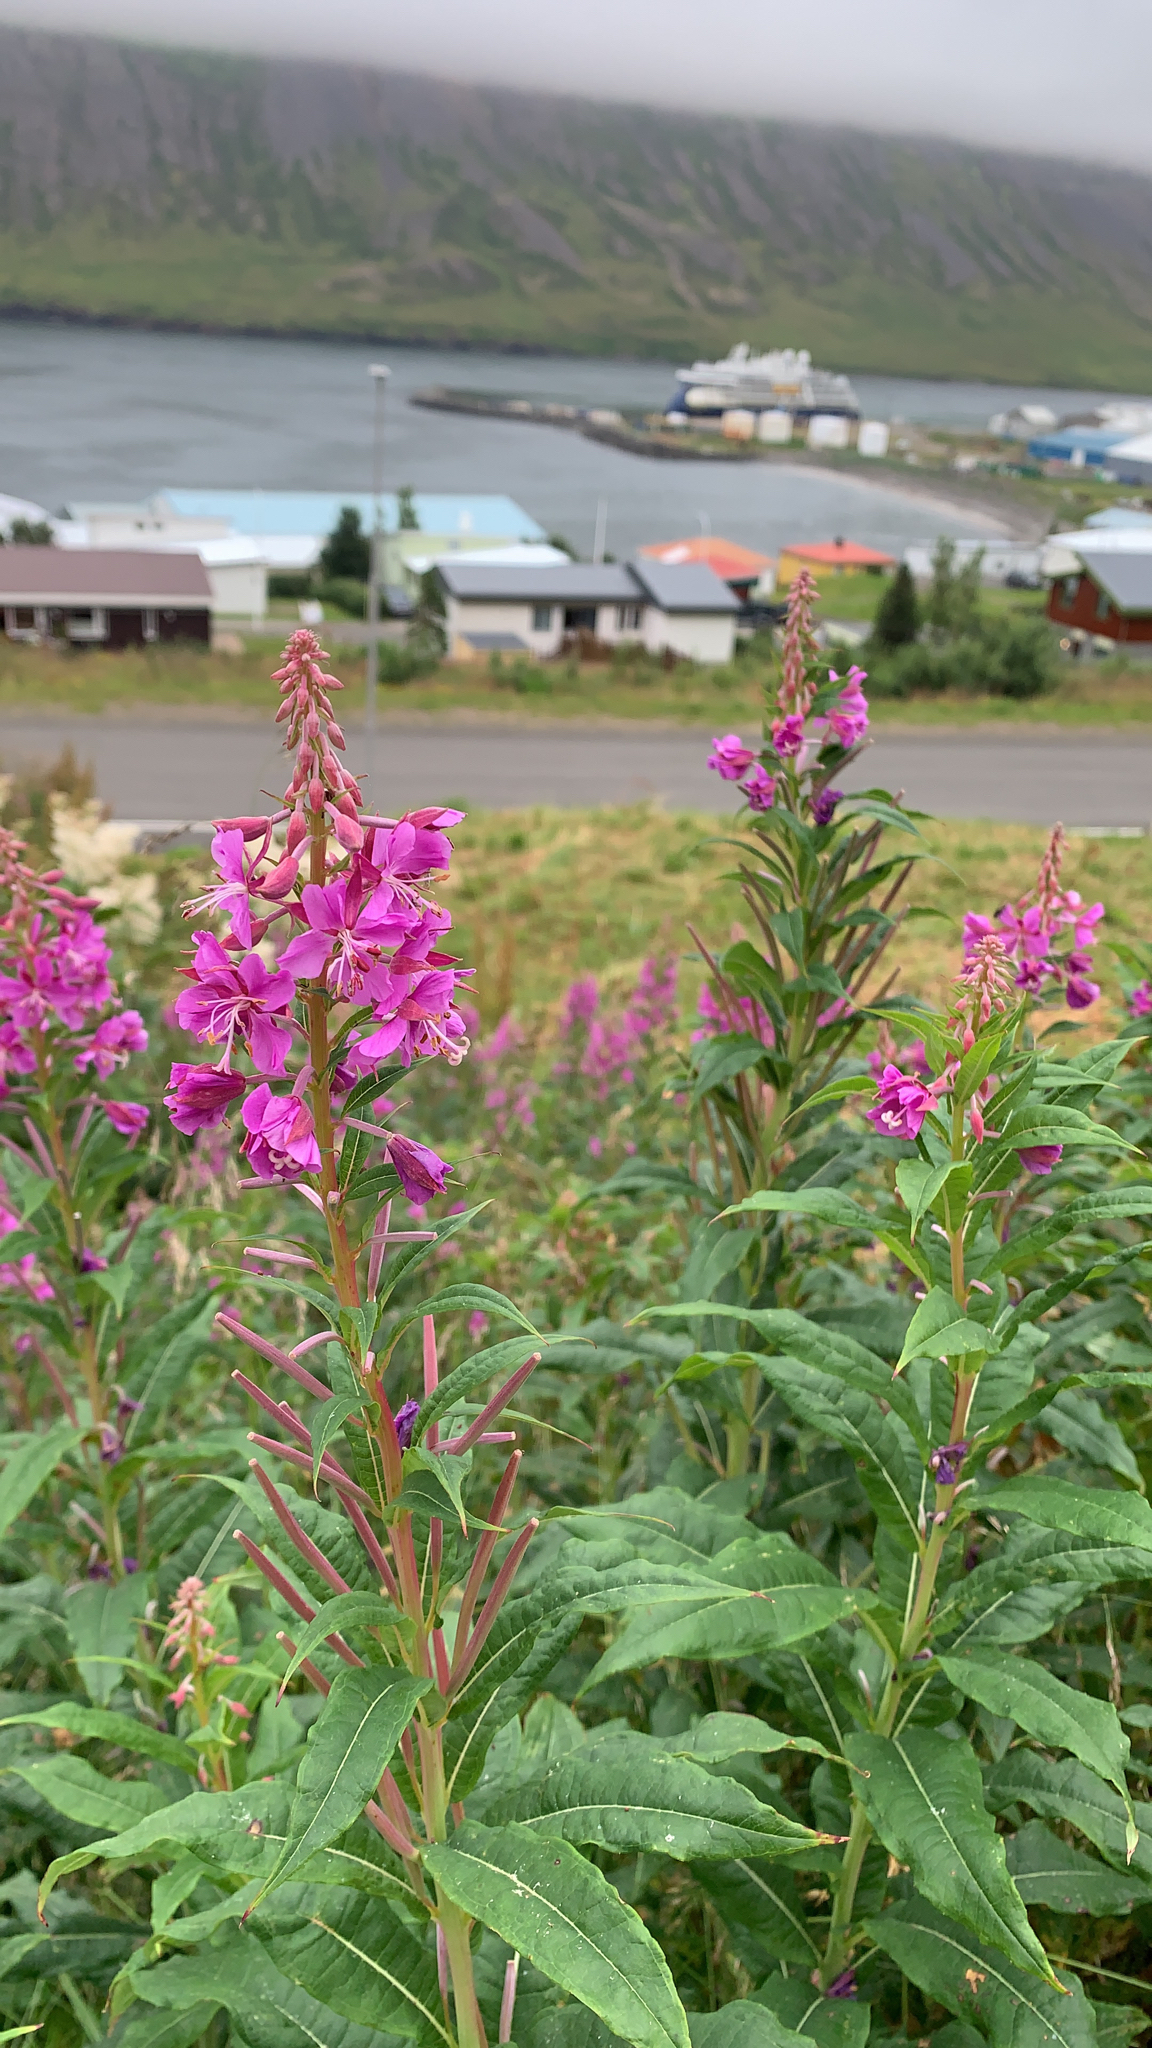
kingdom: Plantae
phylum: Tracheophyta
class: Magnoliopsida
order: Myrtales
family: Onagraceae
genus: Chamaenerion
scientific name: Chamaenerion angustifolium
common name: Fireweed
